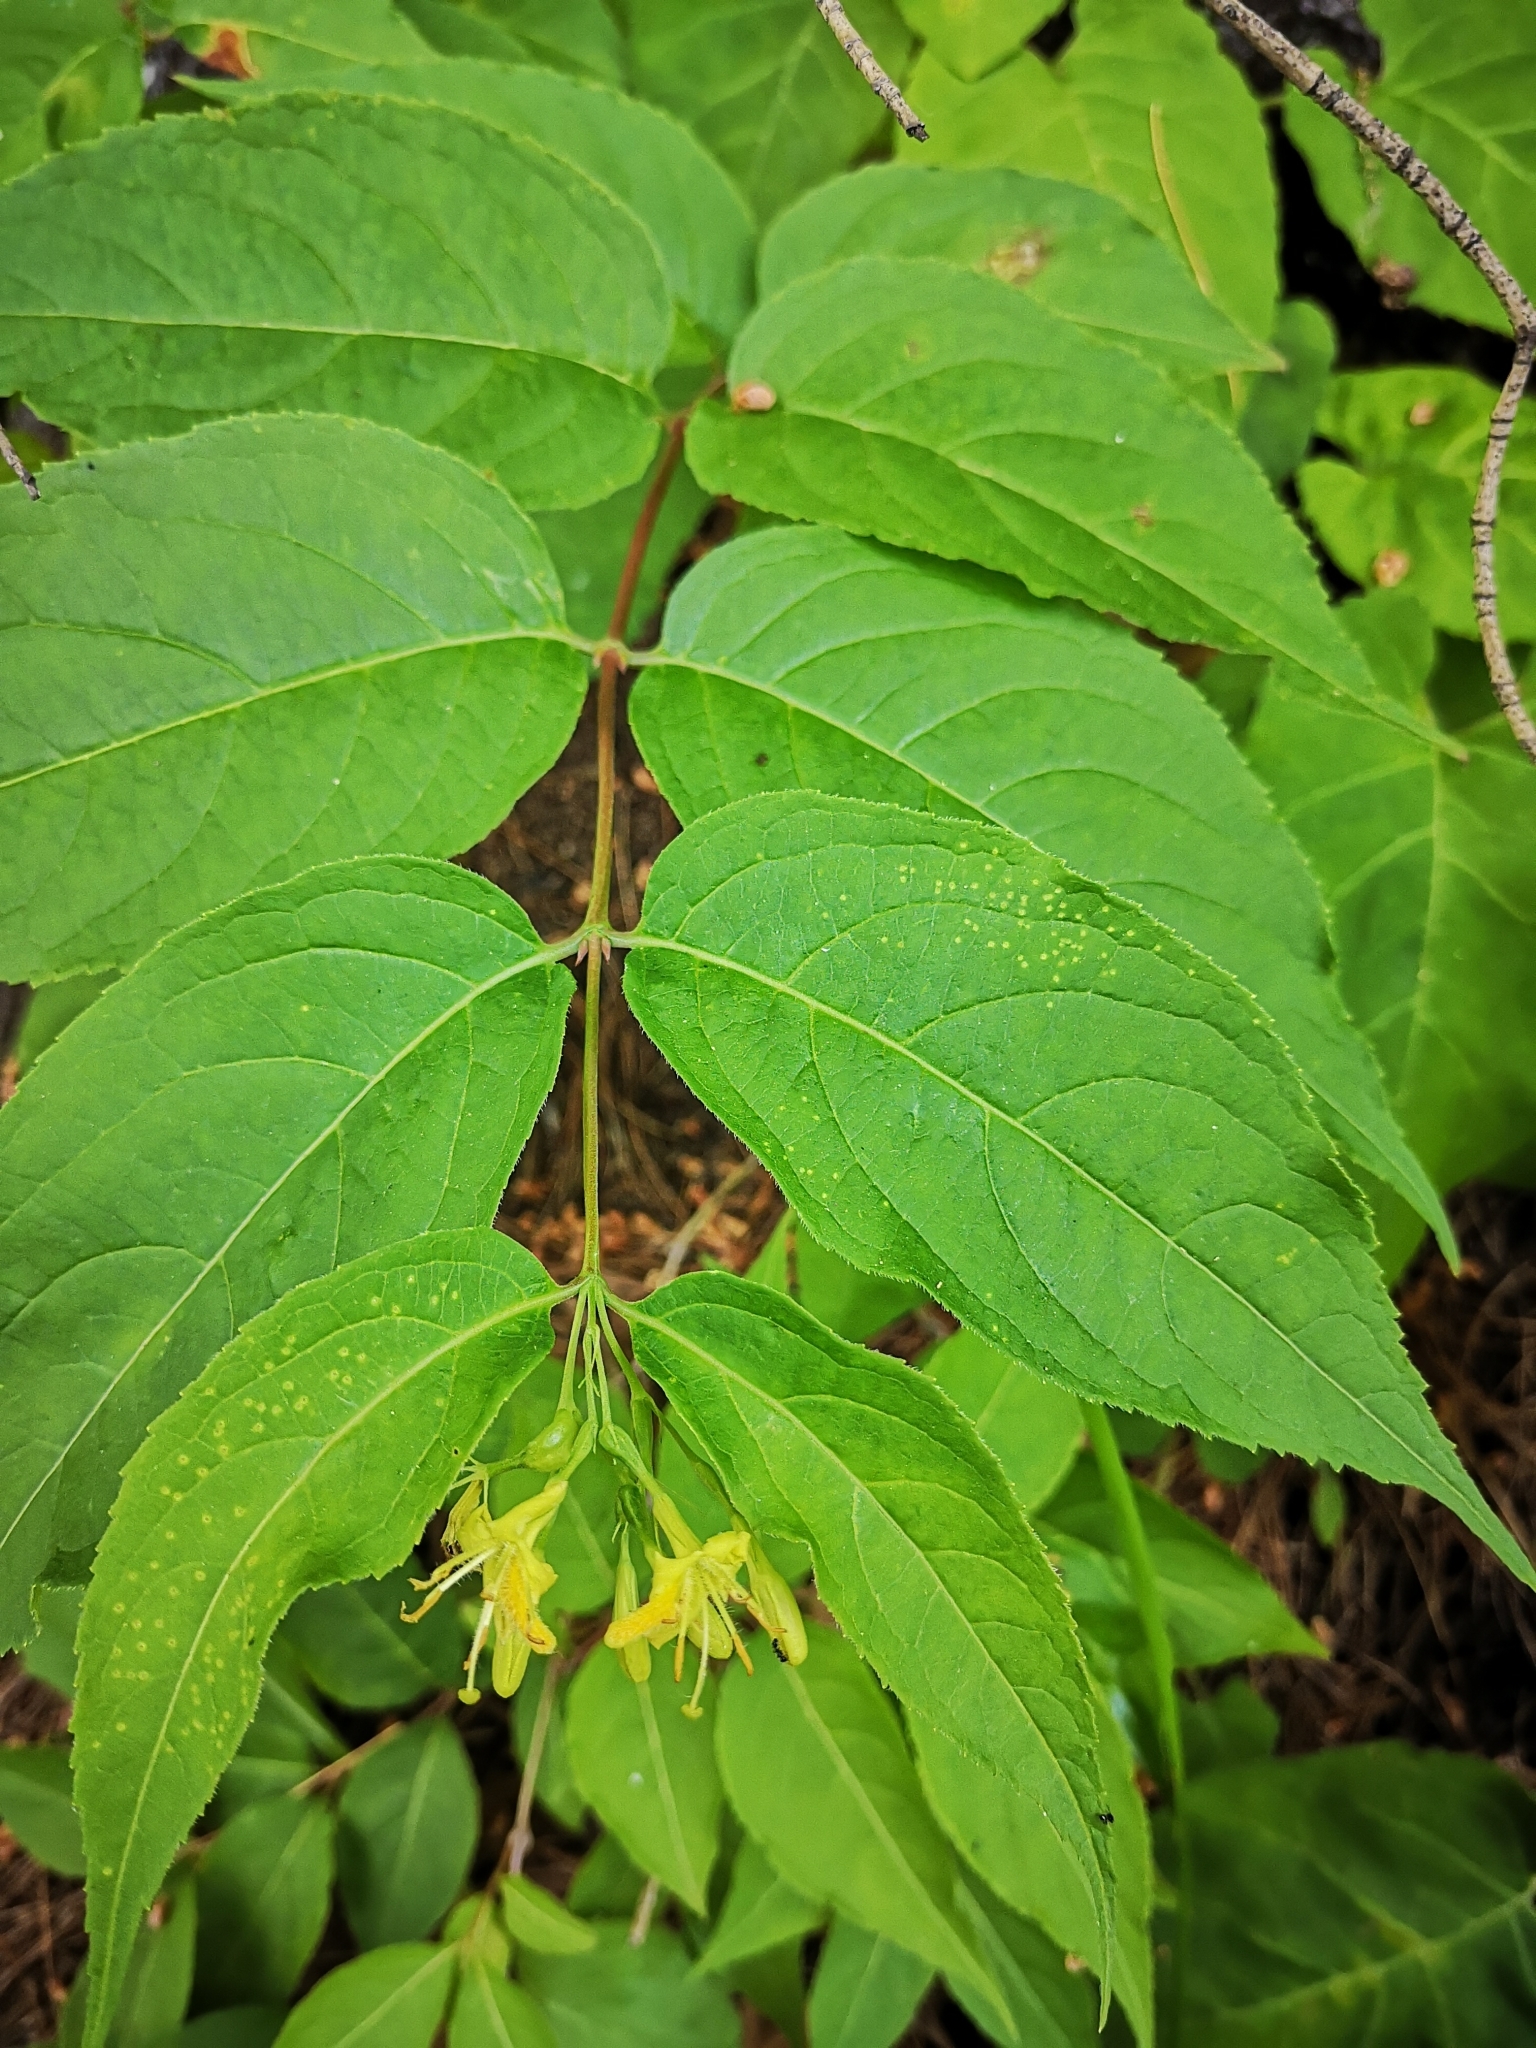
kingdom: Plantae
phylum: Tracheophyta
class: Magnoliopsida
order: Dipsacales
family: Caprifoliaceae
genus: Diervilla
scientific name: Diervilla lonicera
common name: Bush-honeysuckle
